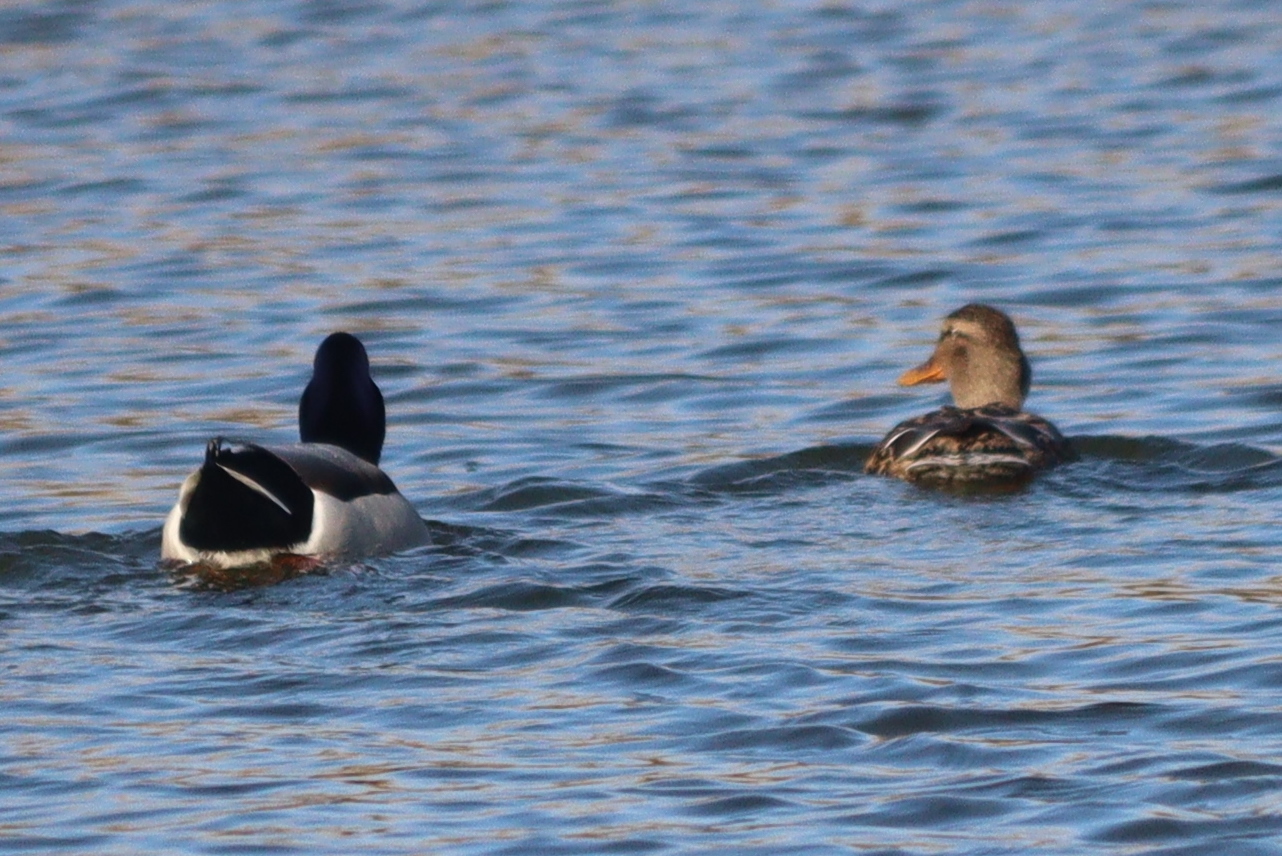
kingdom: Animalia
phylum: Chordata
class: Aves
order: Anseriformes
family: Anatidae
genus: Anas
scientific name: Anas platyrhynchos
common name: Mallard
